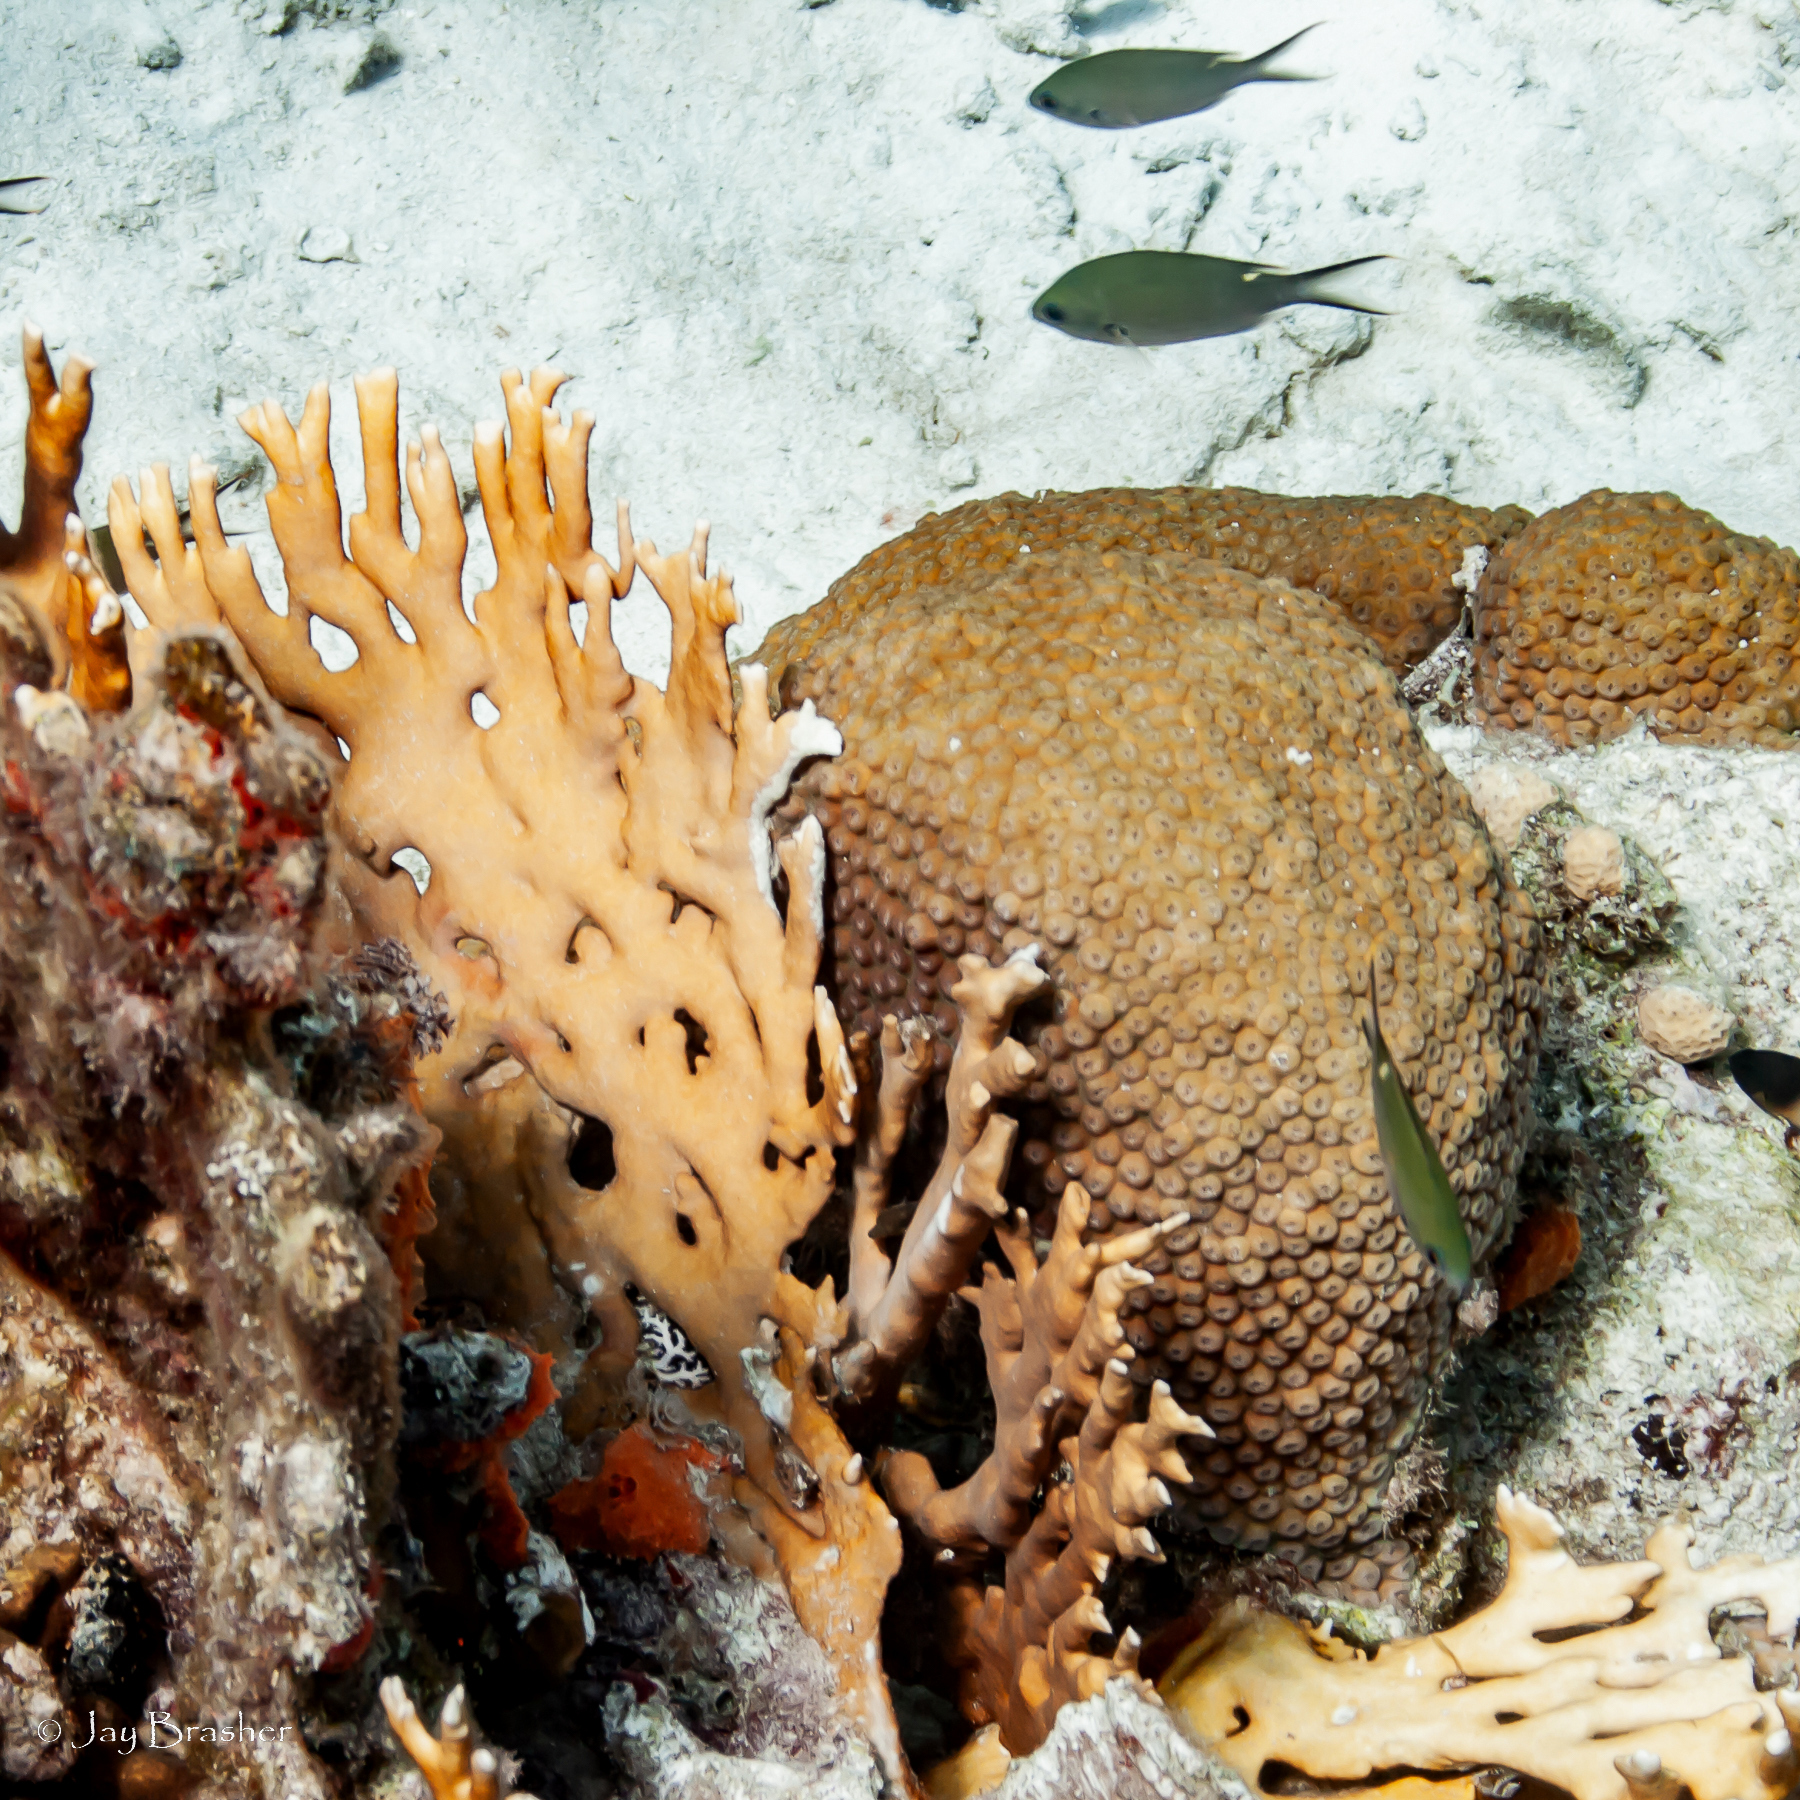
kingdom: Animalia
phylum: Chordata
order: Perciformes
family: Pomacentridae
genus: Chromis
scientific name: Chromis multilineata
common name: Brown chromis
